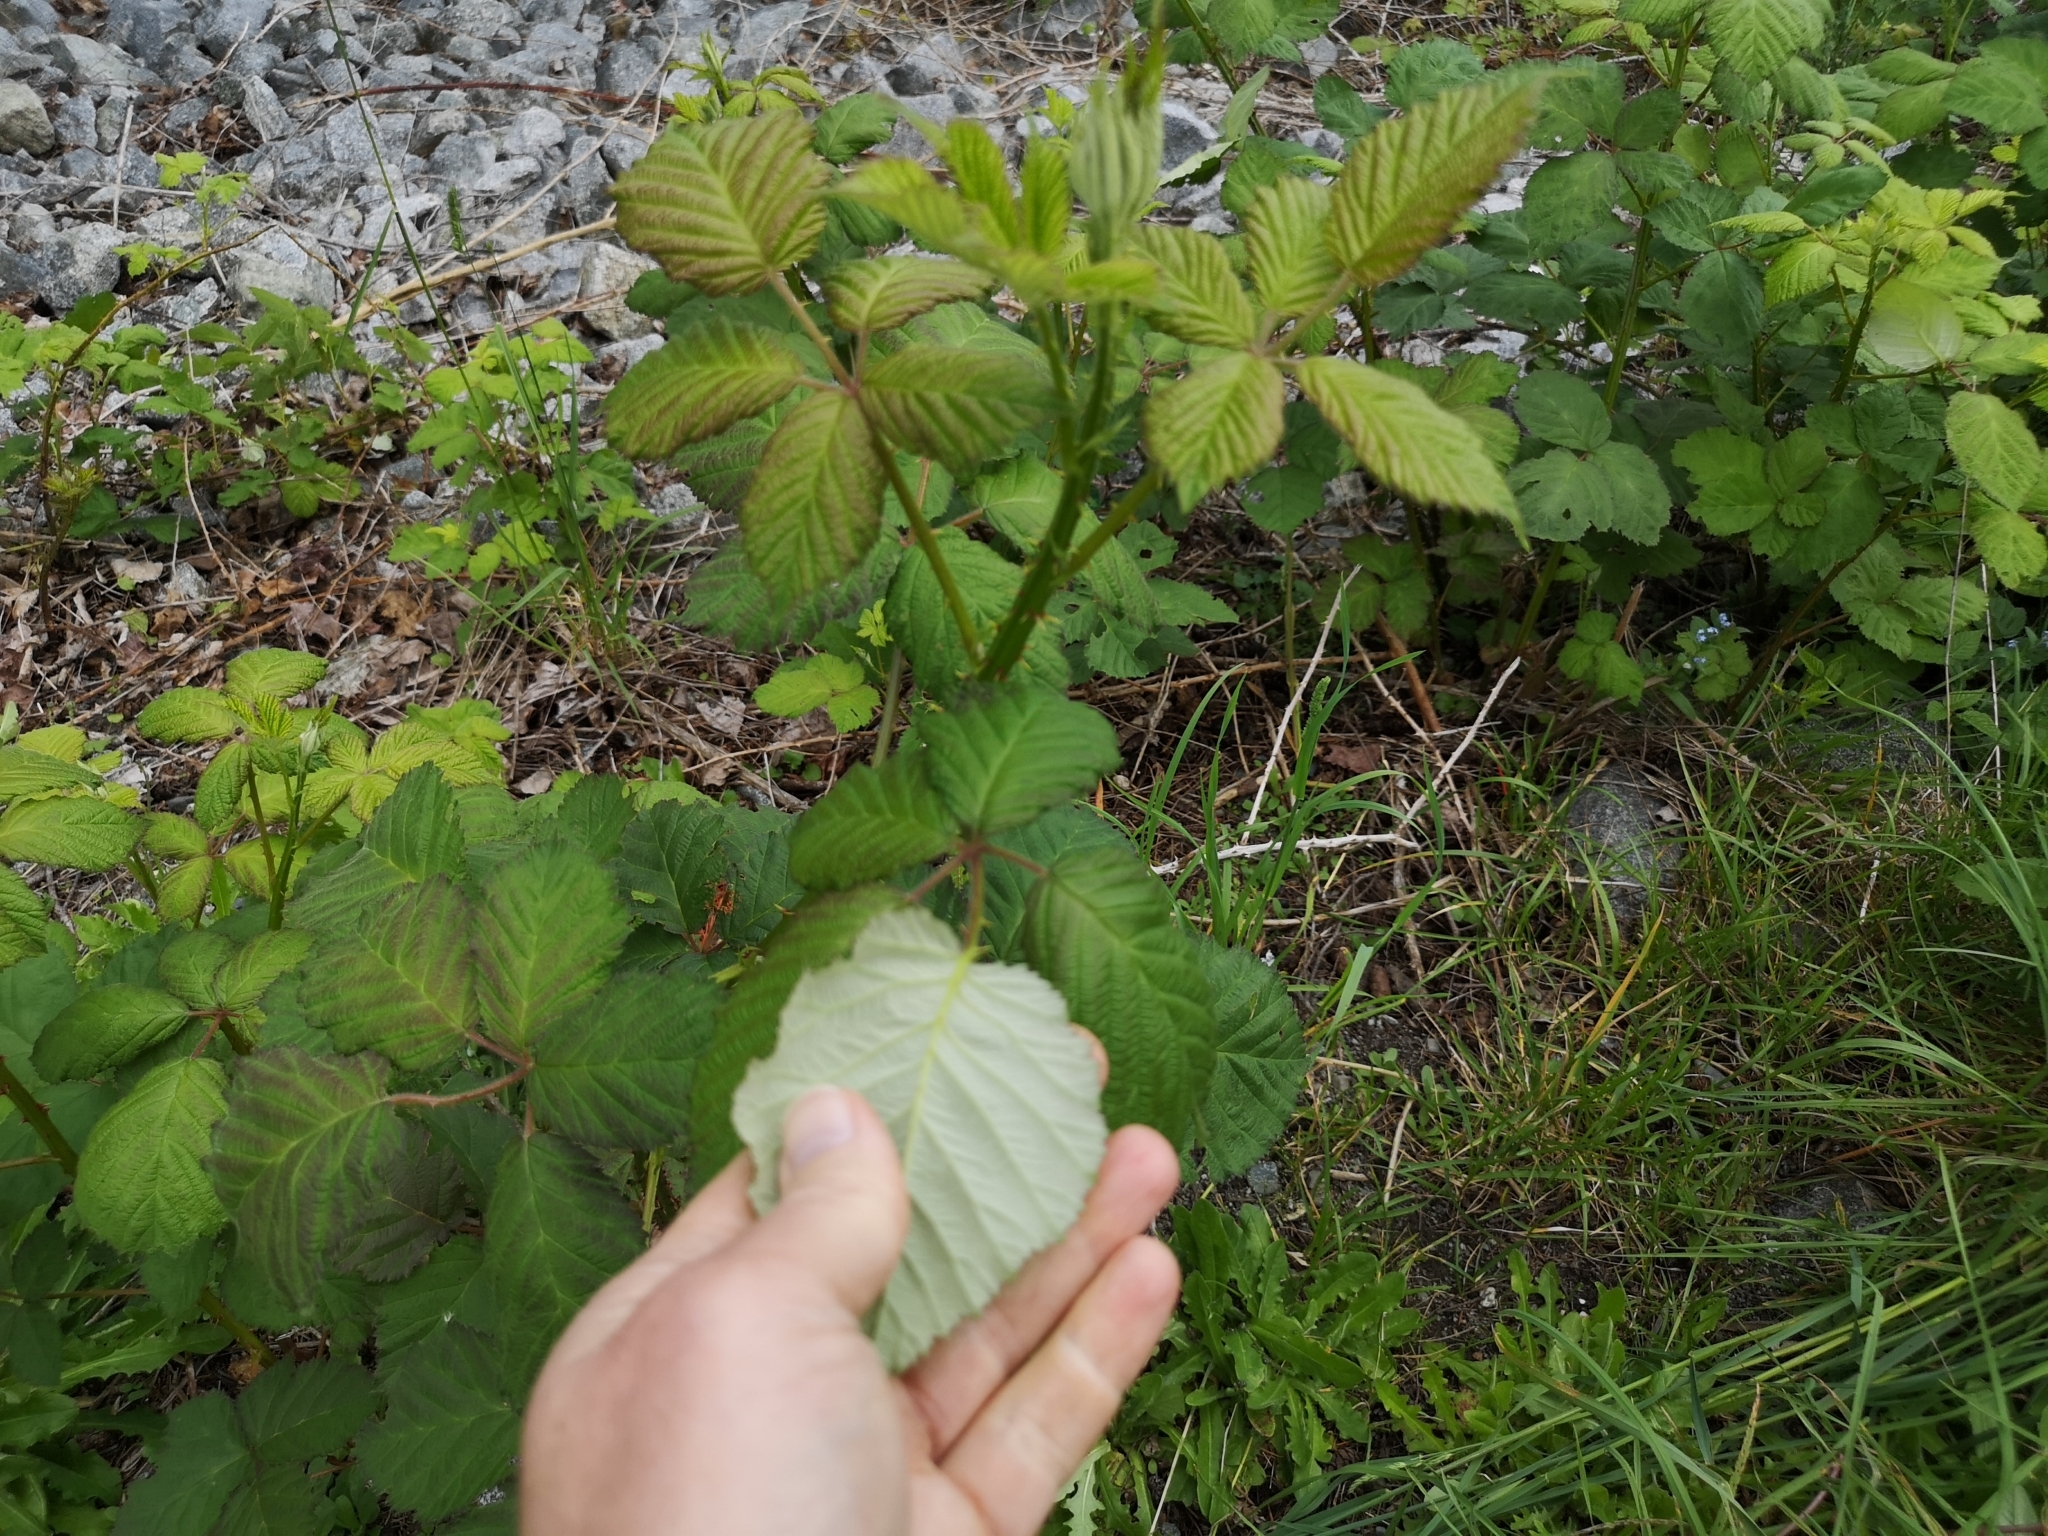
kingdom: Plantae
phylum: Tracheophyta
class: Magnoliopsida
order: Rosales
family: Rosaceae
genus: Rubus
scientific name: Rubus bifrons
